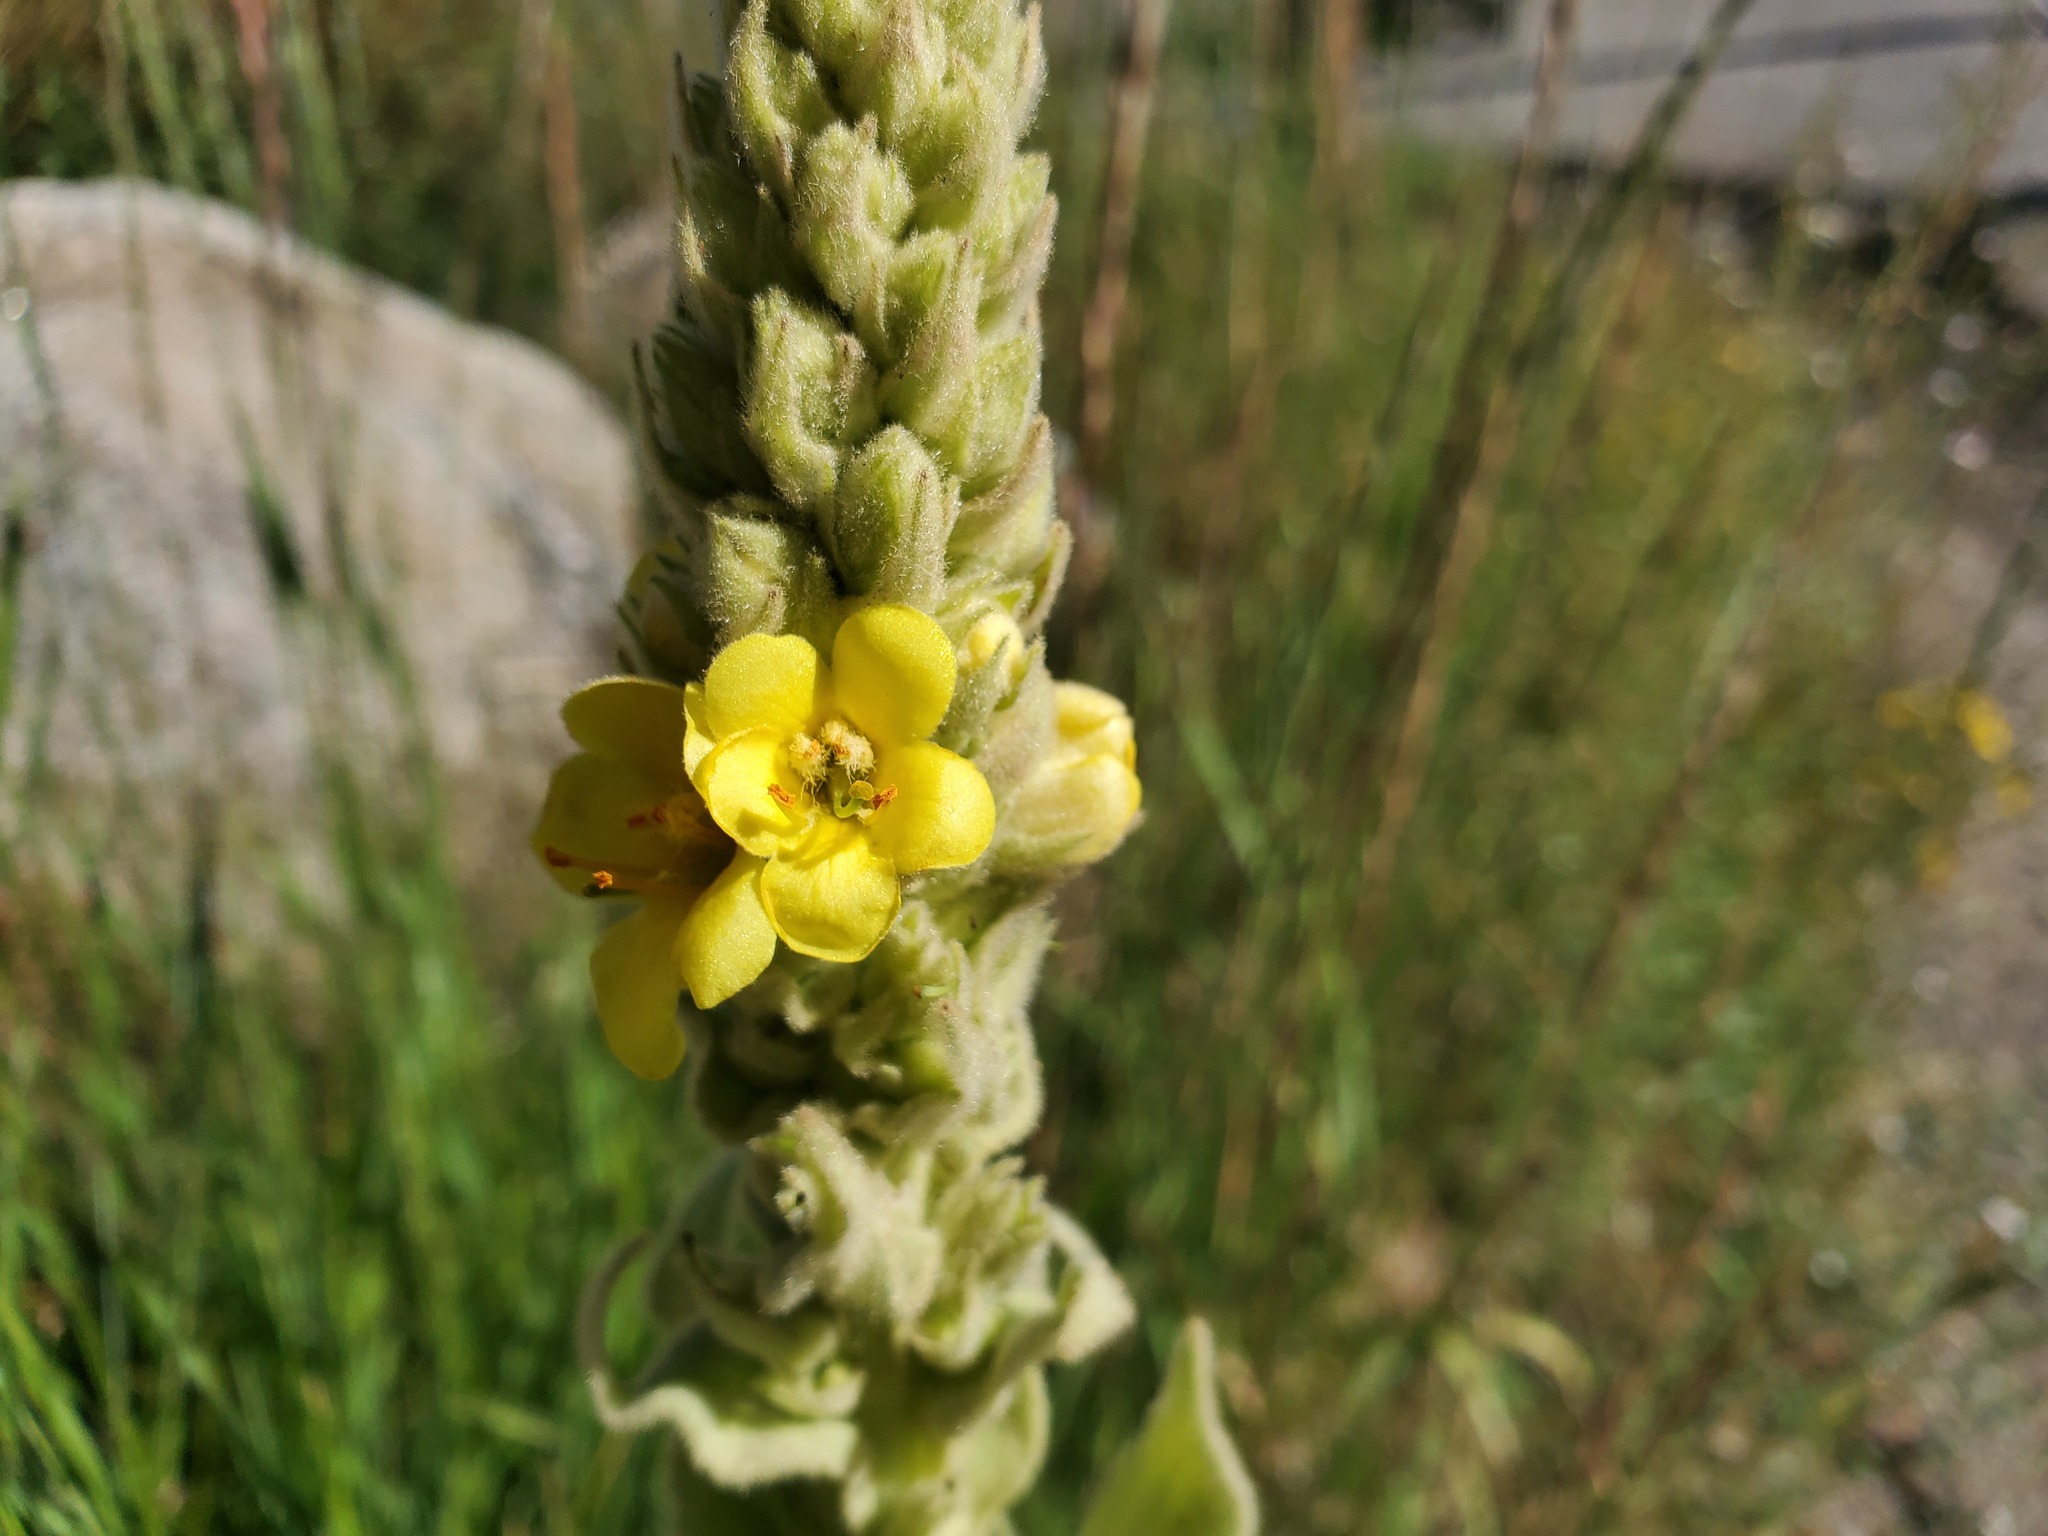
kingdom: Plantae
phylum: Tracheophyta
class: Magnoliopsida
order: Lamiales
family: Scrophulariaceae
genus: Verbascum
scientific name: Verbascum thapsus
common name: Common mullein
